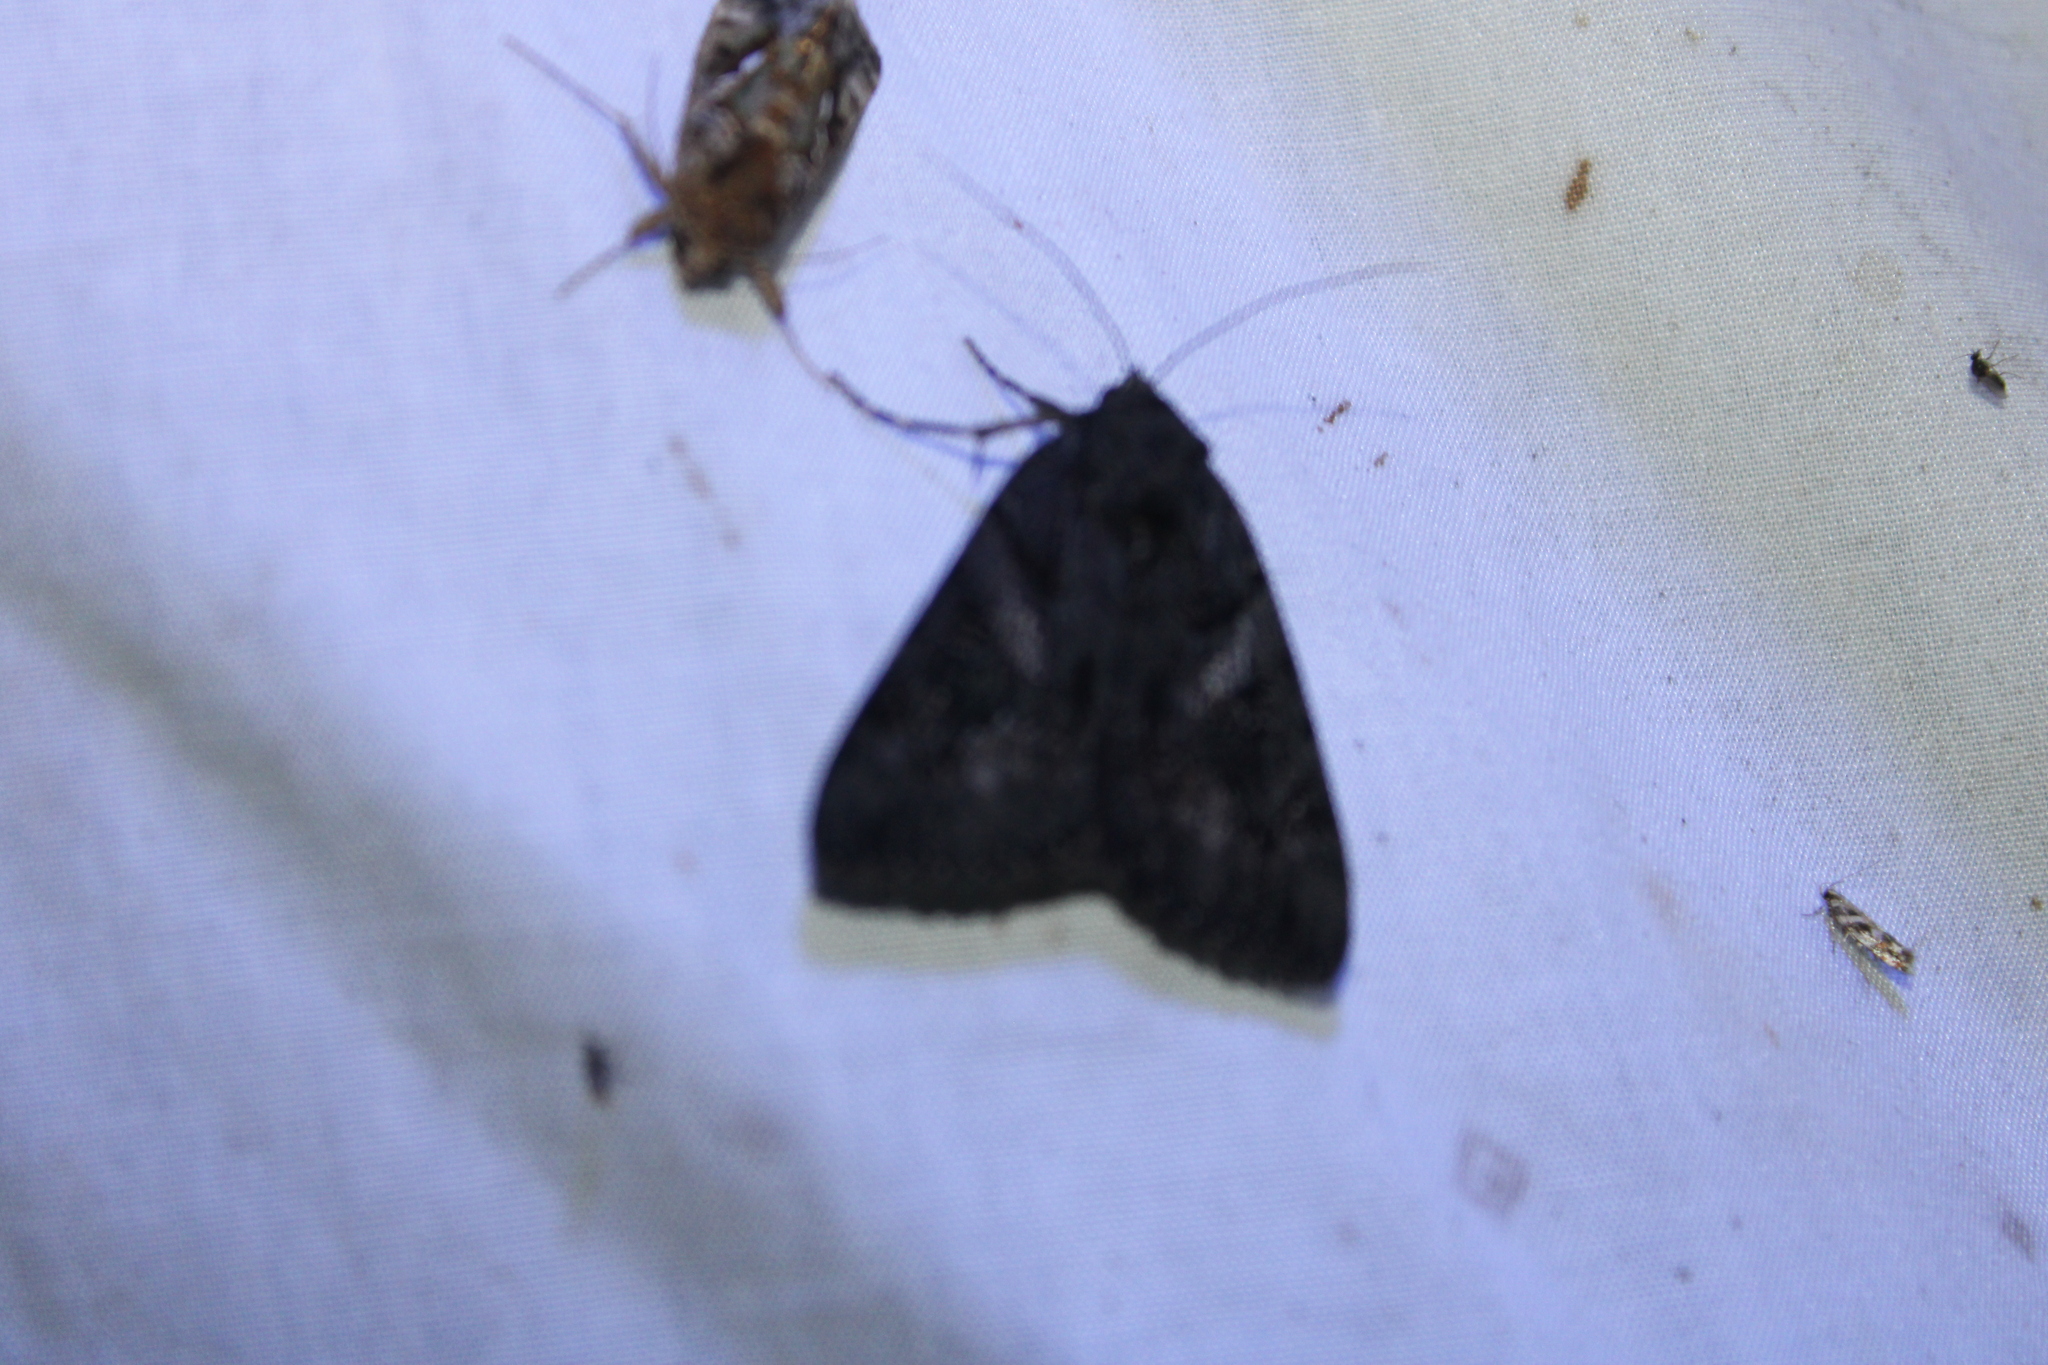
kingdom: Animalia
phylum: Arthropoda
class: Insecta
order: Lepidoptera
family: Erebidae
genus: Catocala
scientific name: Catocala antinympha
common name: Sweetfern underwing
